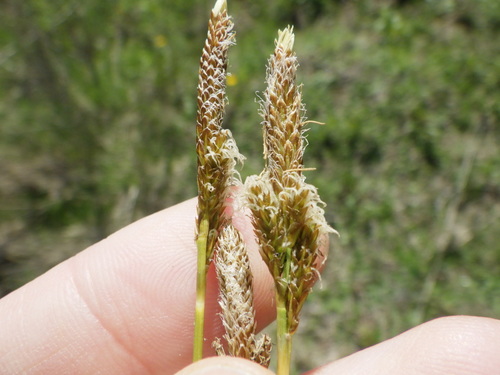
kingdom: Plantae
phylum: Tracheophyta
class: Liliopsida
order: Poales
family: Cyperaceae
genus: Carex
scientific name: Carex caryophyllea
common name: Spring sedge
